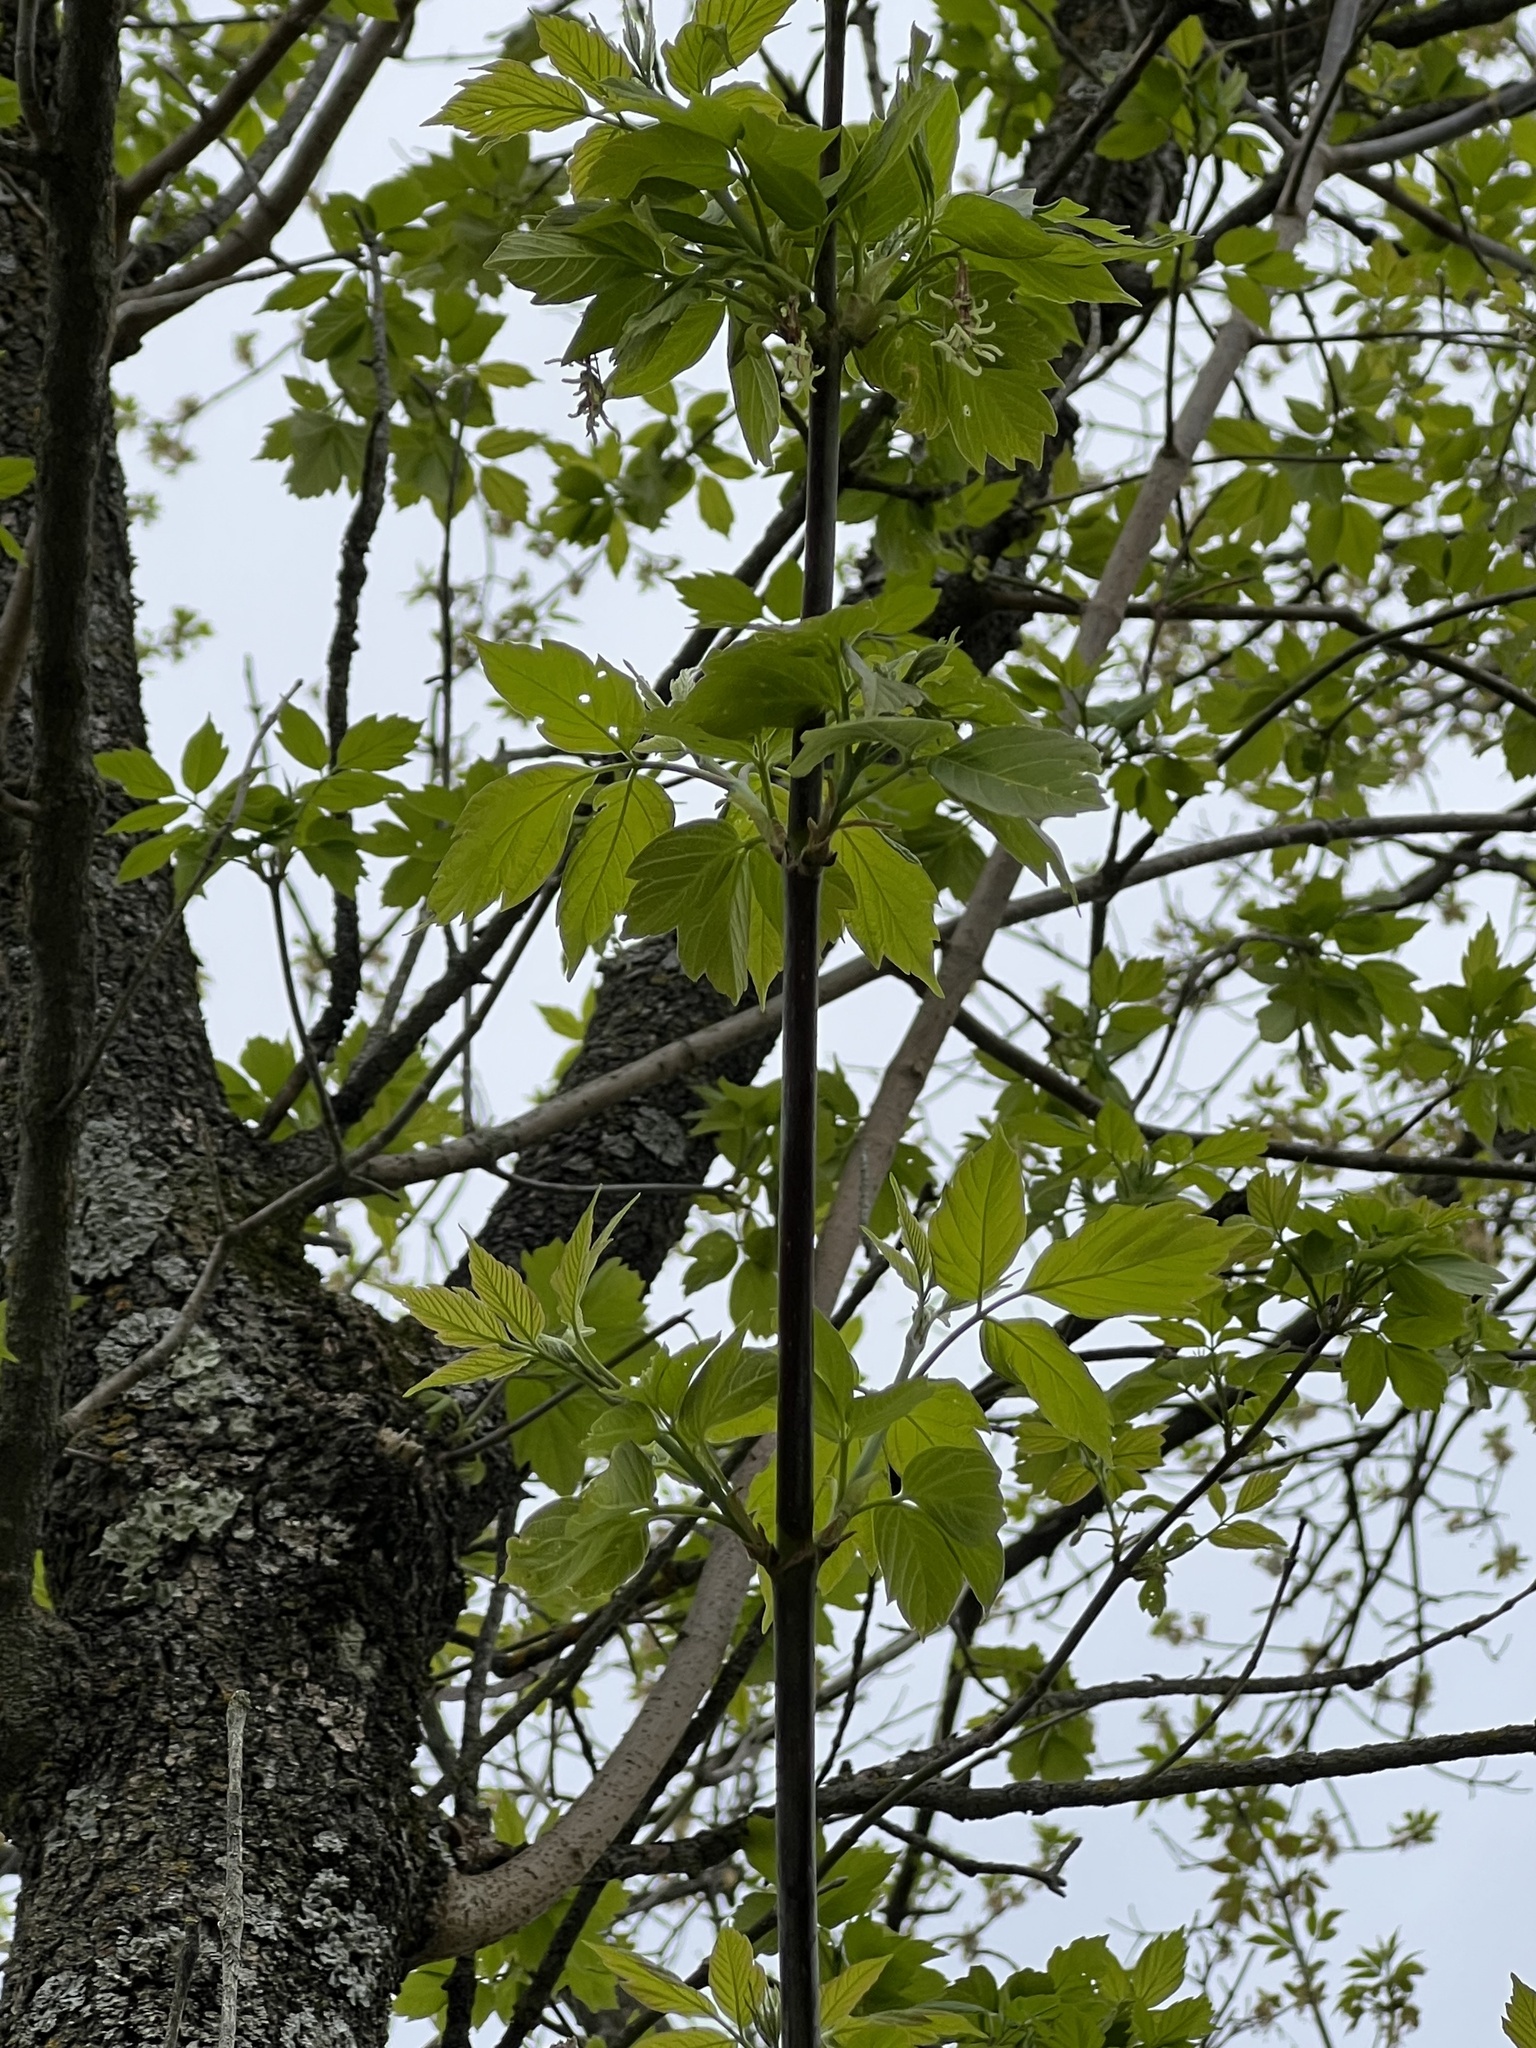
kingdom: Plantae
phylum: Tracheophyta
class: Magnoliopsida
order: Sapindales
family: Sapindaceae
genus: Acer
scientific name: Acer negundo
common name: Ashleaf maple
